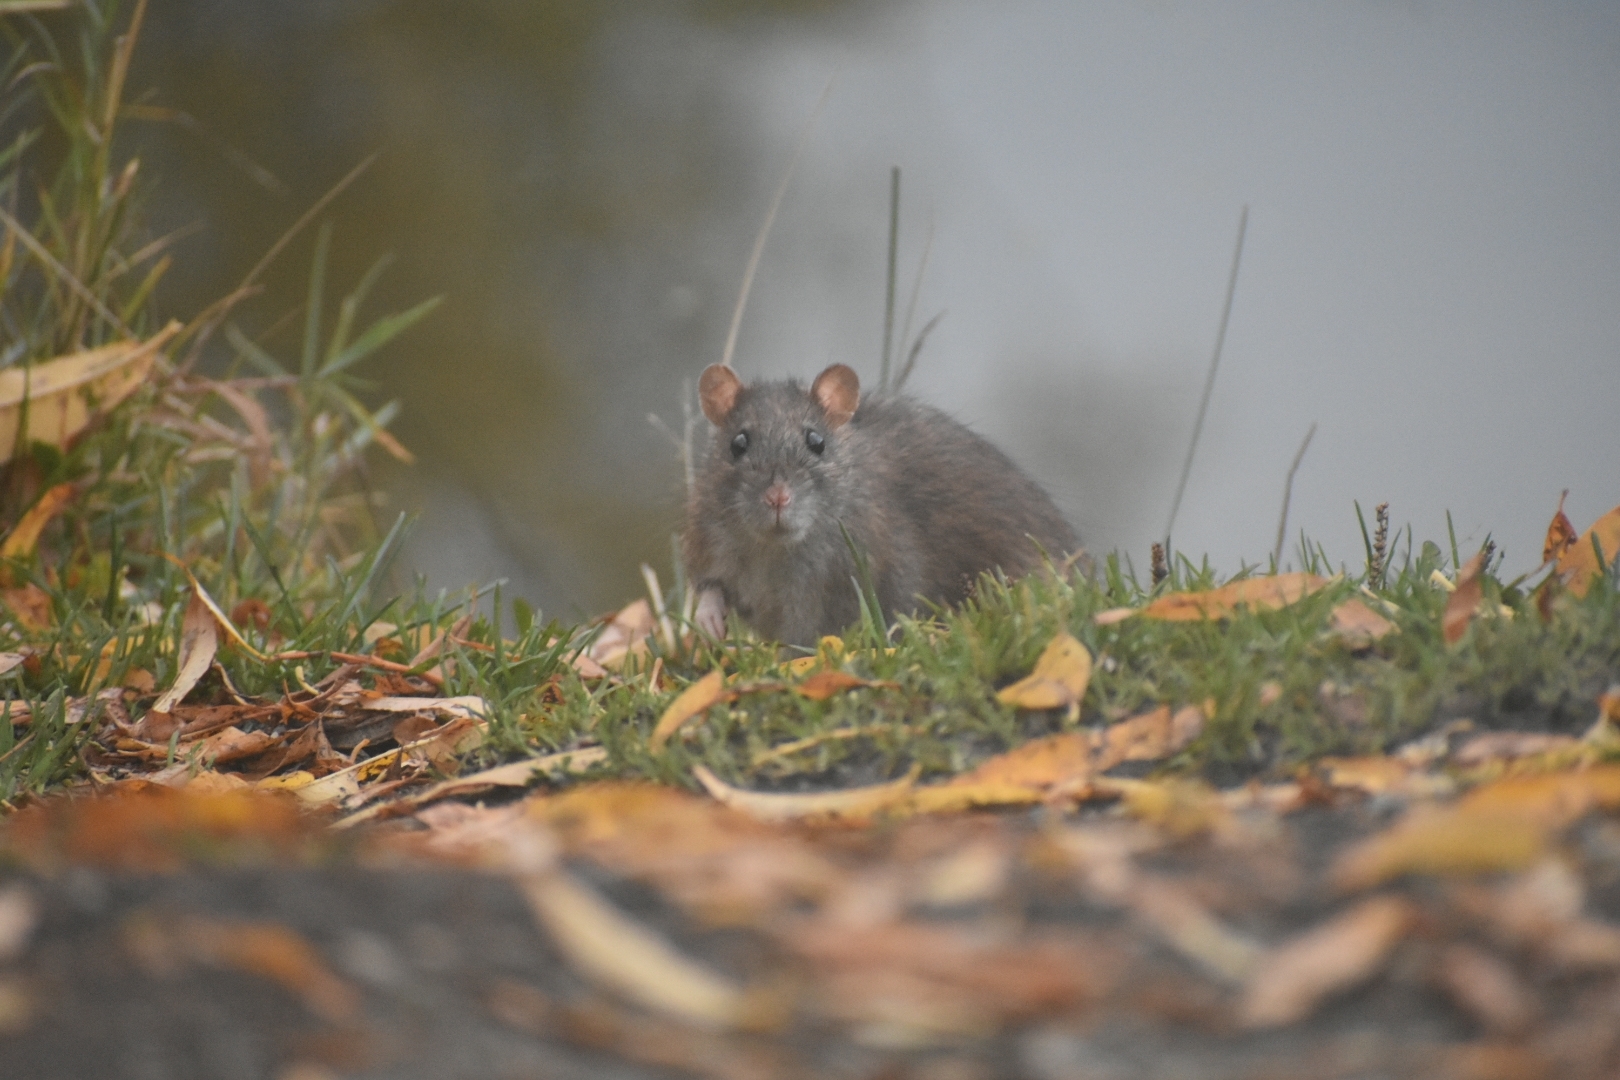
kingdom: Animalia
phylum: Chordata
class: Mammalia
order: Rodentia
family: Muridae
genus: Rattus
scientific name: Rattus norvegicus
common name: Brown rat
